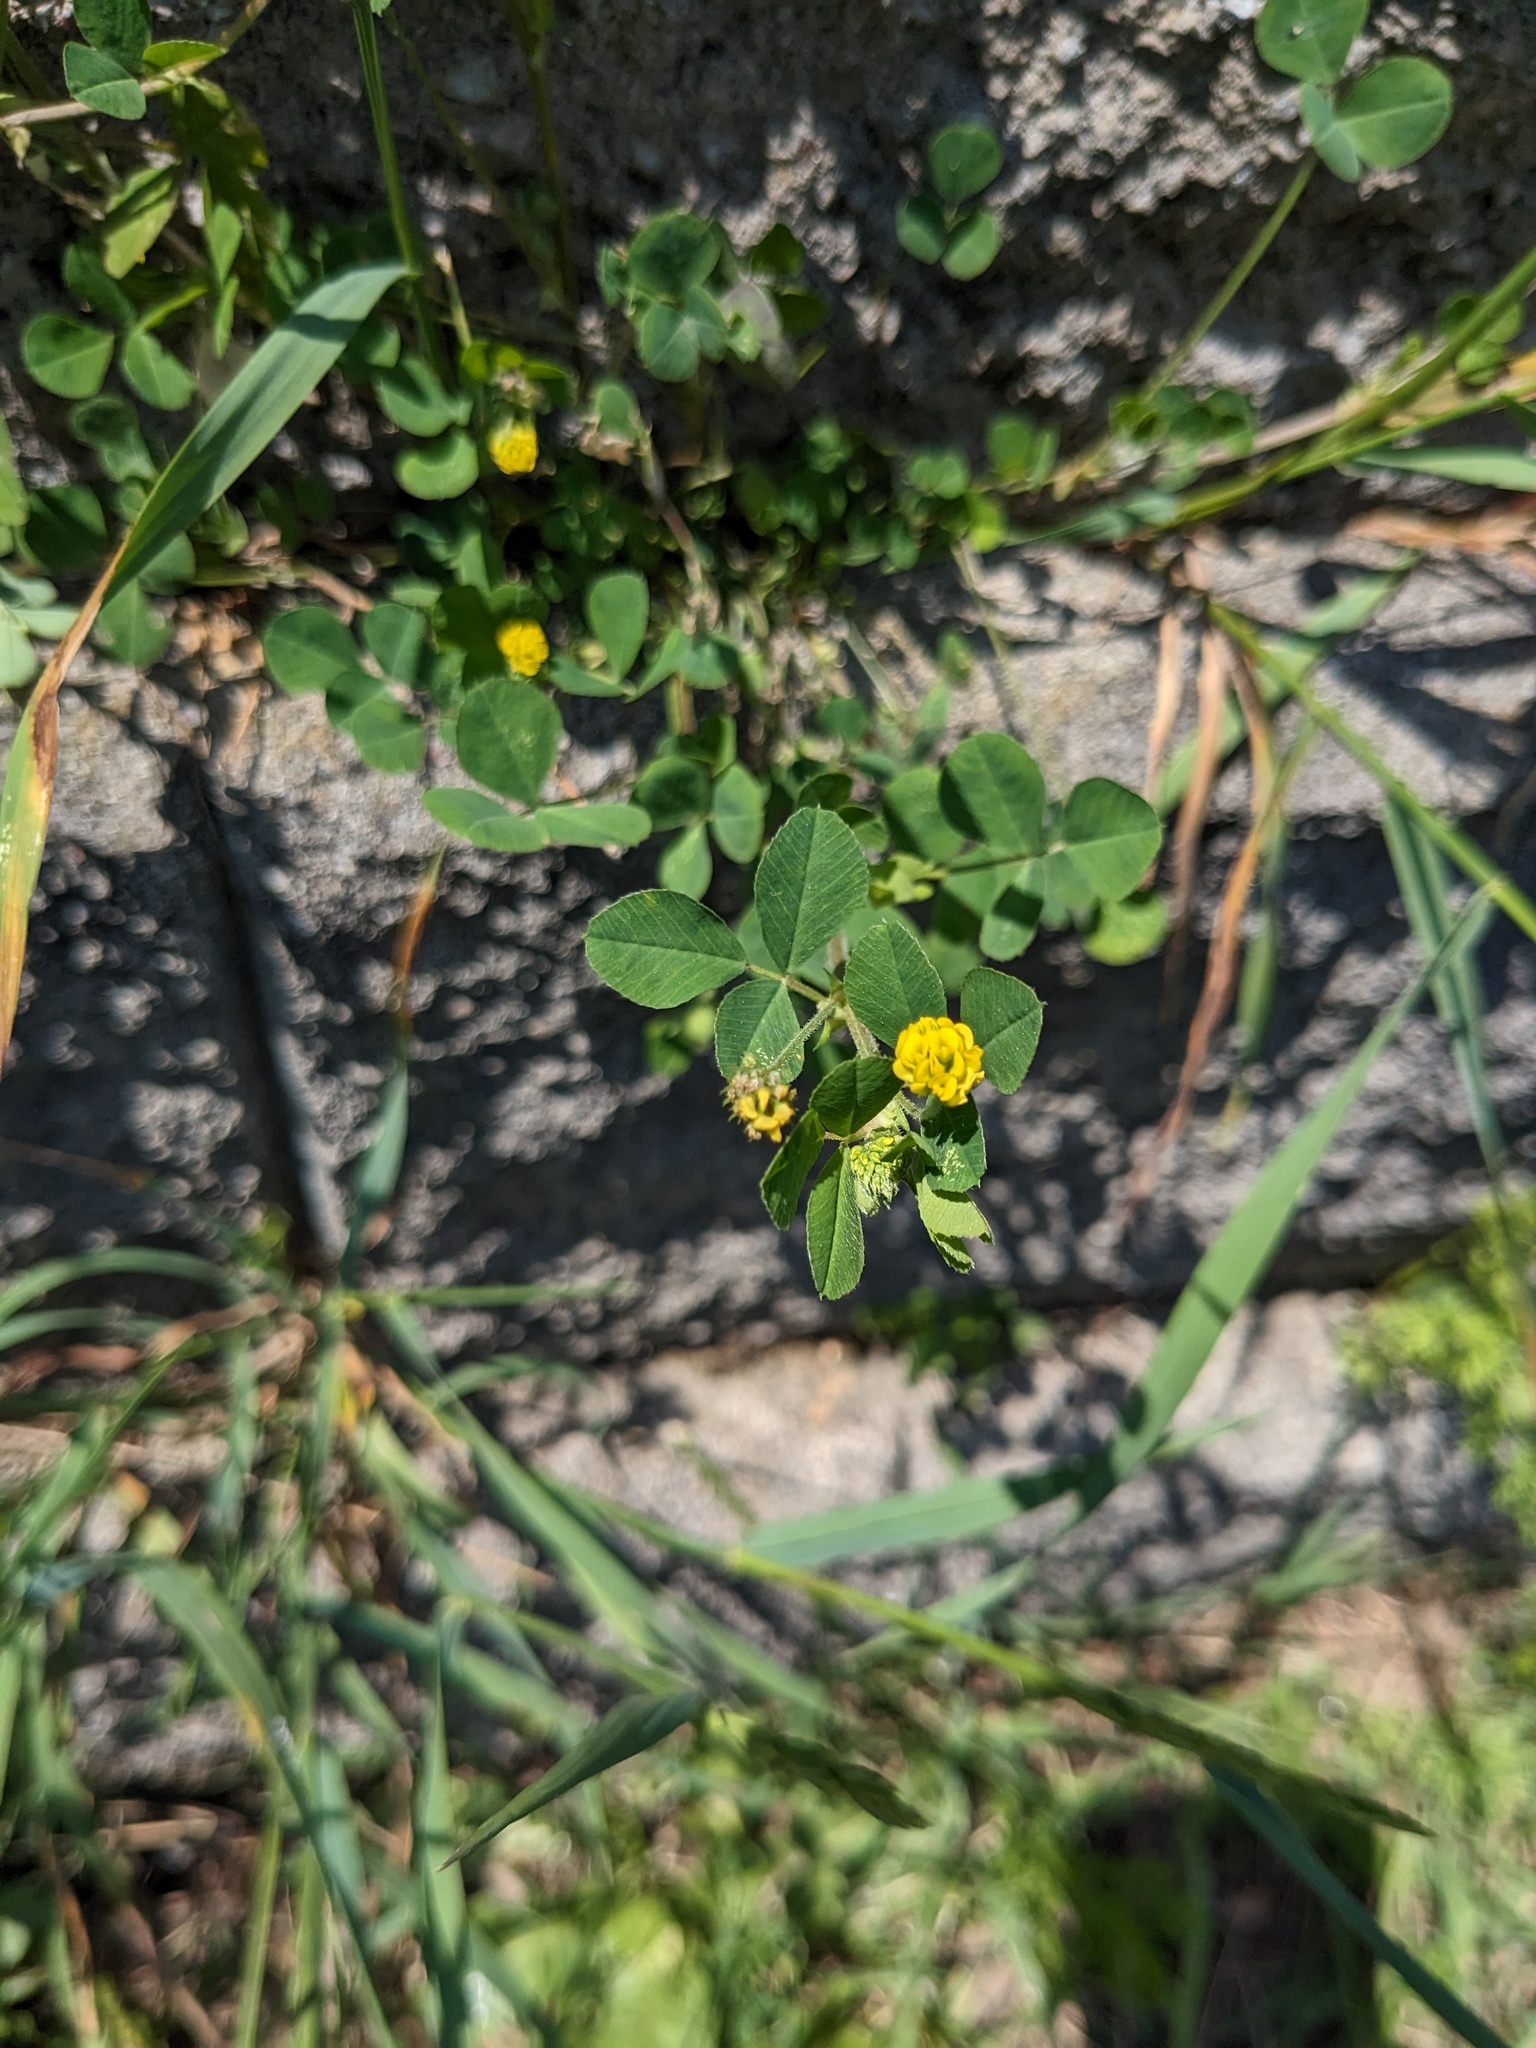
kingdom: Plantae
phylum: Tracheophyta
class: Magnoliopsida
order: Fabales
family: Fabaceae
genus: Medicago
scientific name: Medicago lupulina
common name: Black medick
